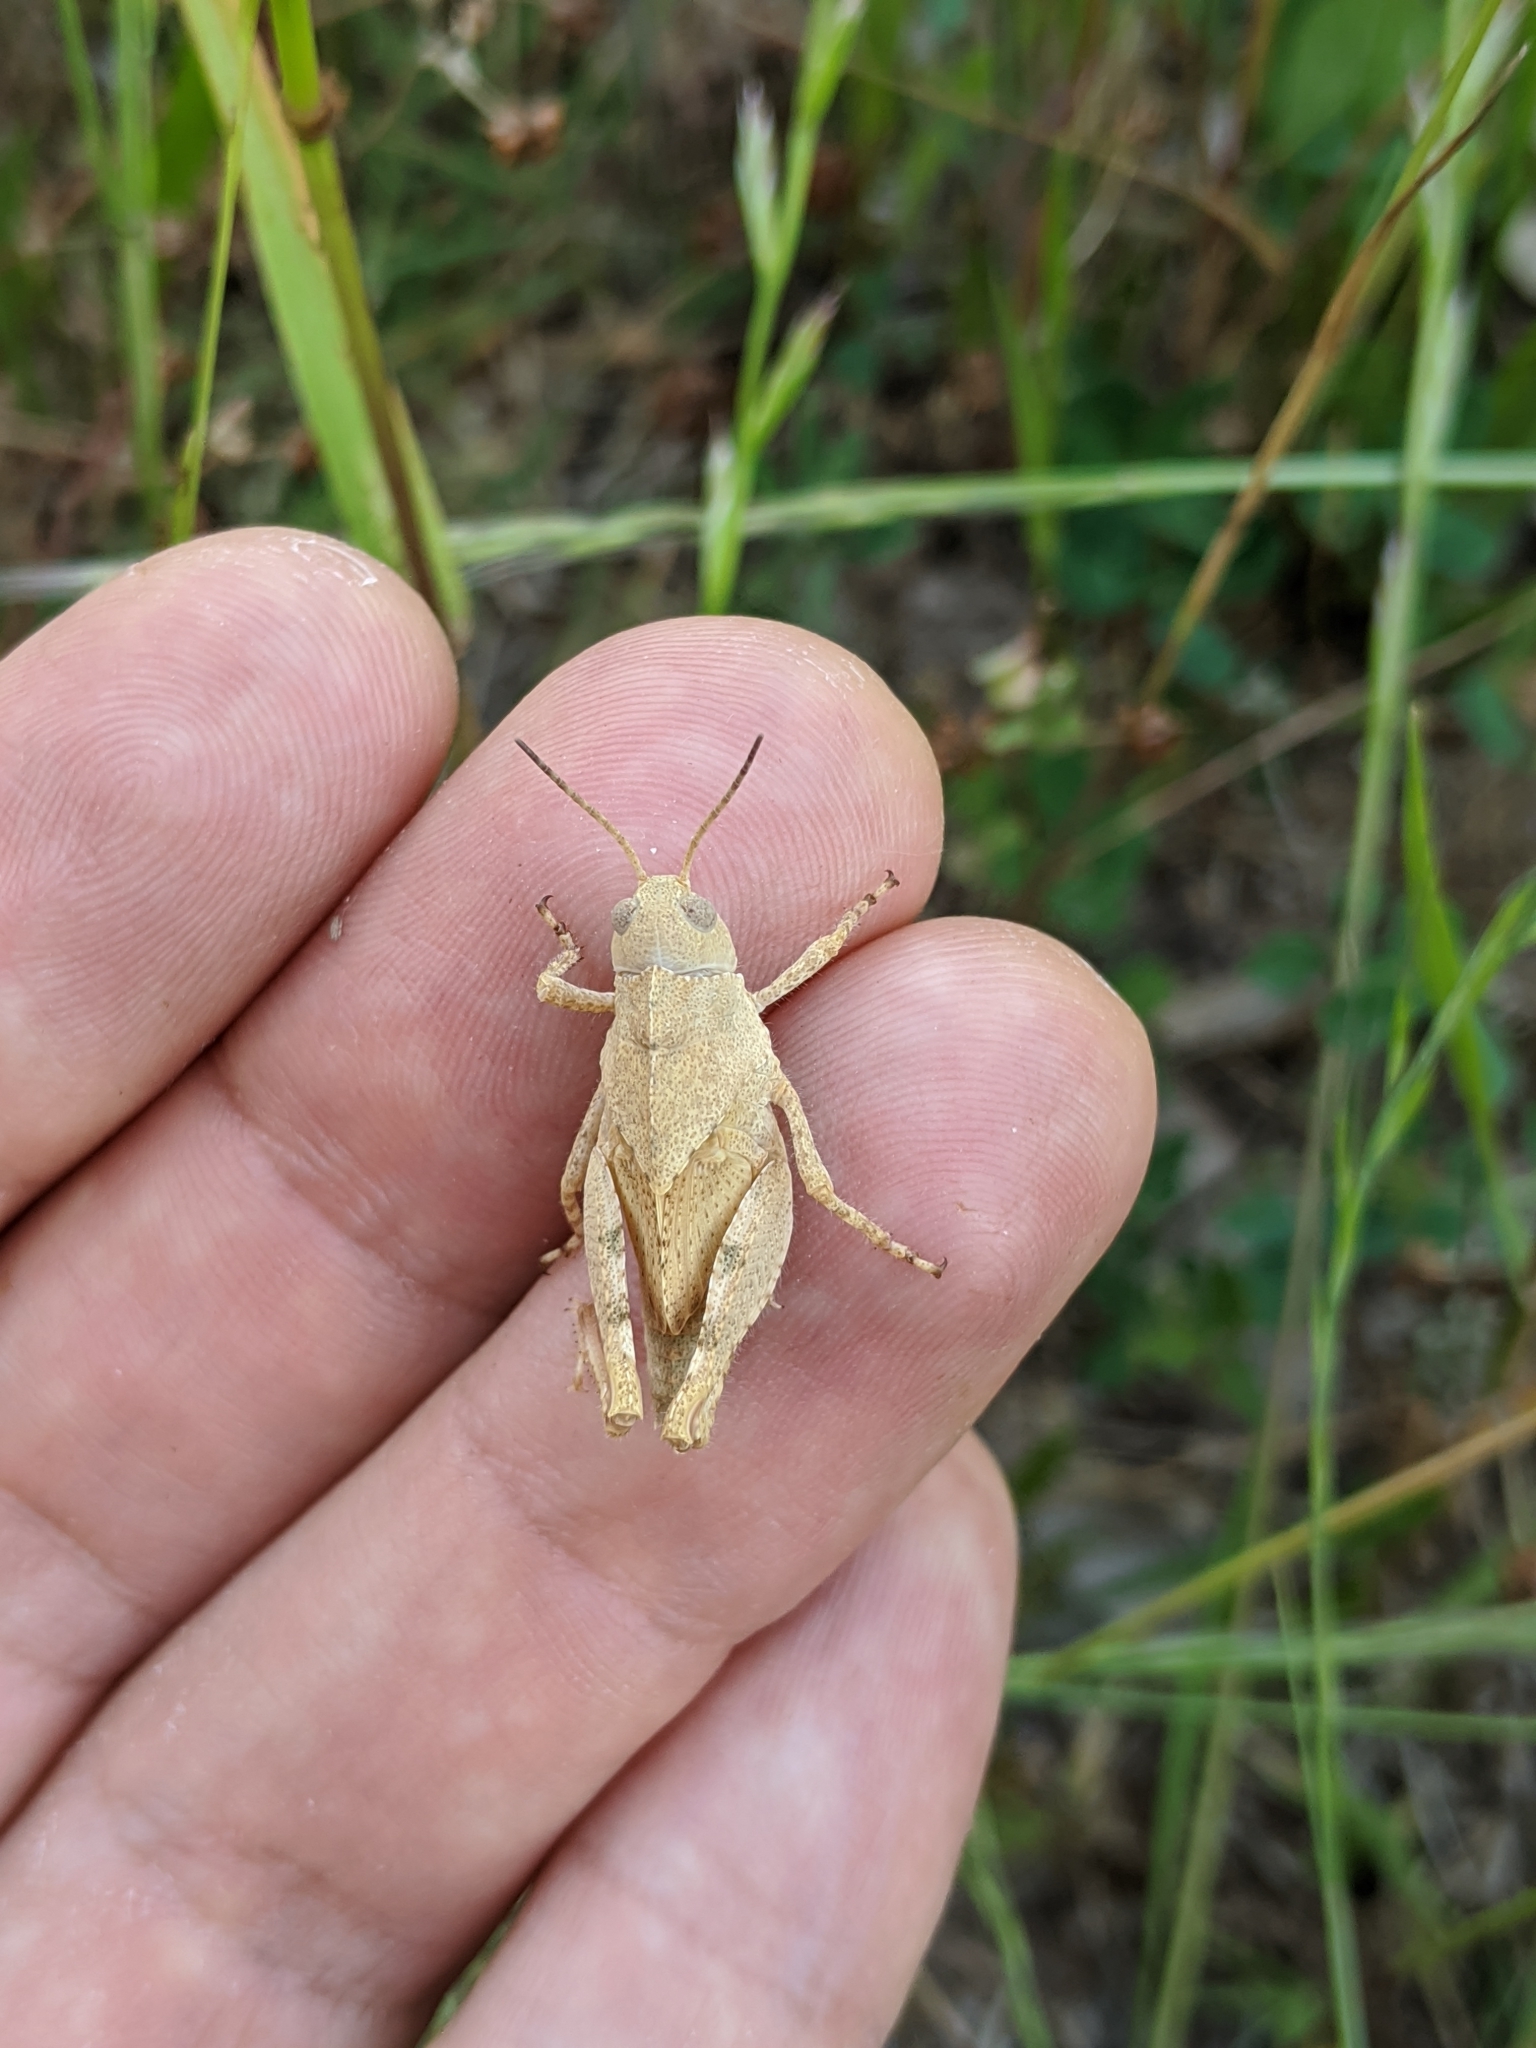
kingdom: Animalia
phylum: Arthropoda
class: Insecta
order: Orthoptera
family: Acrididae
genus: Dissosteira
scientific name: Dissosteira carolina
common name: Carolina grasshopper
